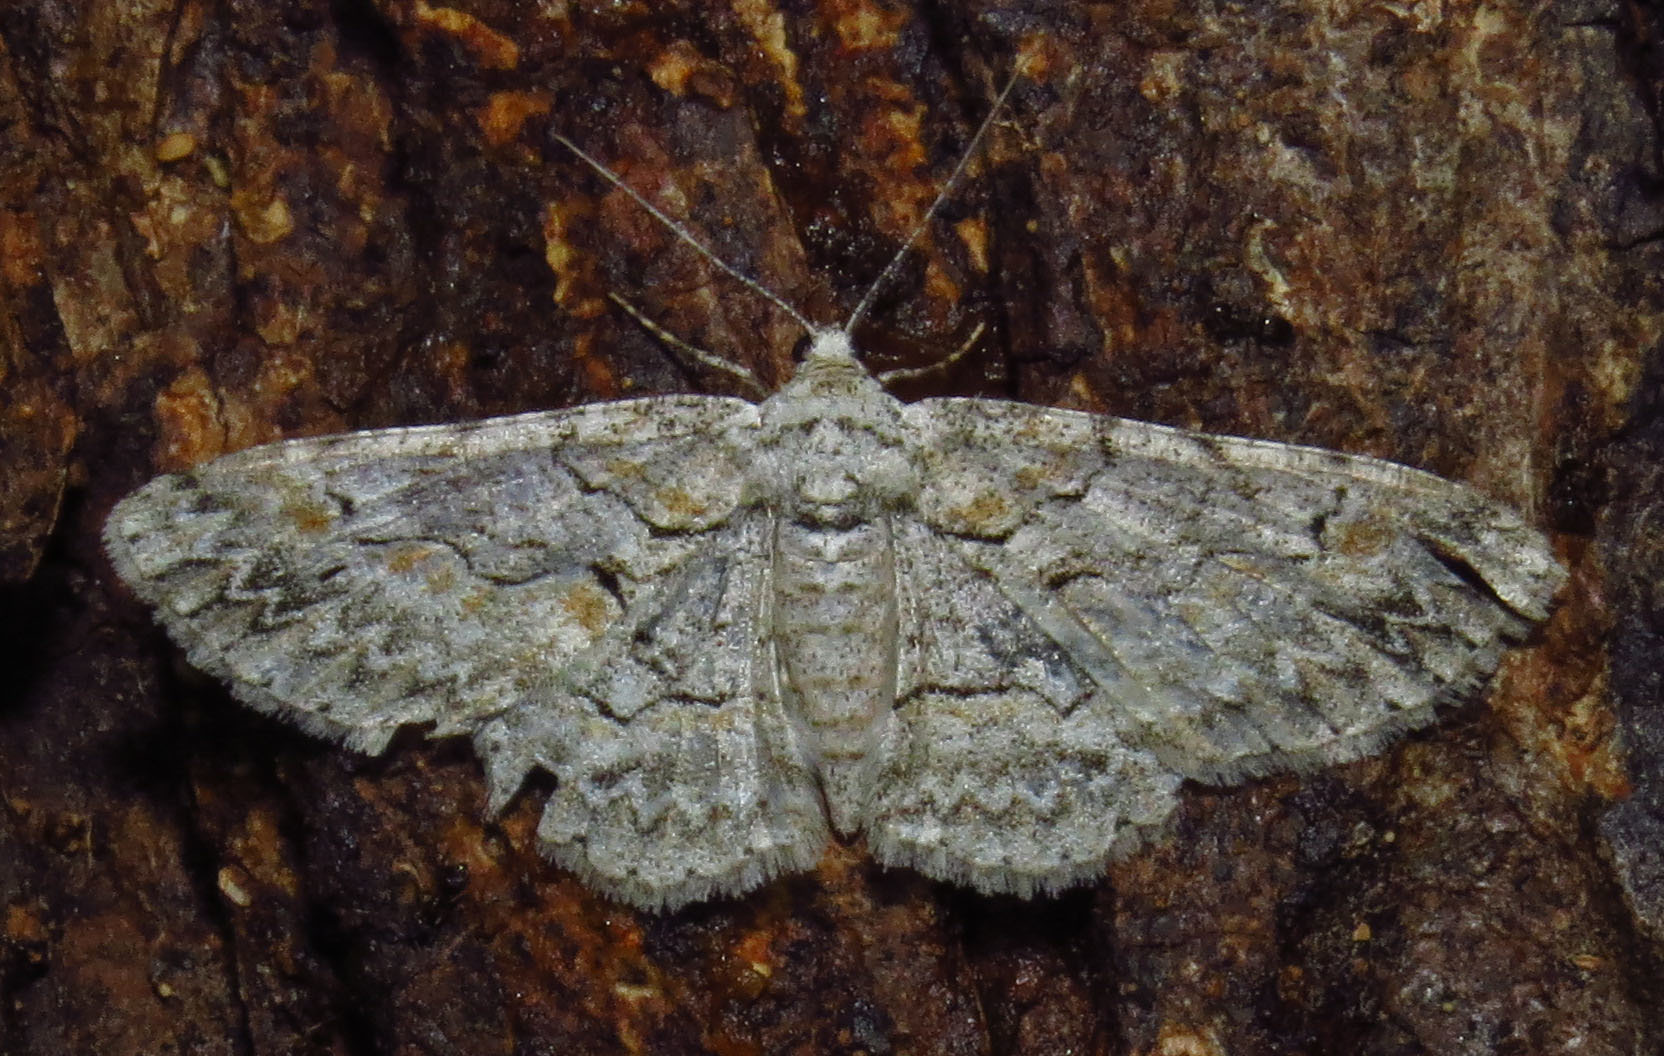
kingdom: Animalia
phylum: Arthropoda
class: Insecta
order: Lepidoptera
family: Geometridae
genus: Iridopsis
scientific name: Iridopsis defectaria
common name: Brown-shaded gray
